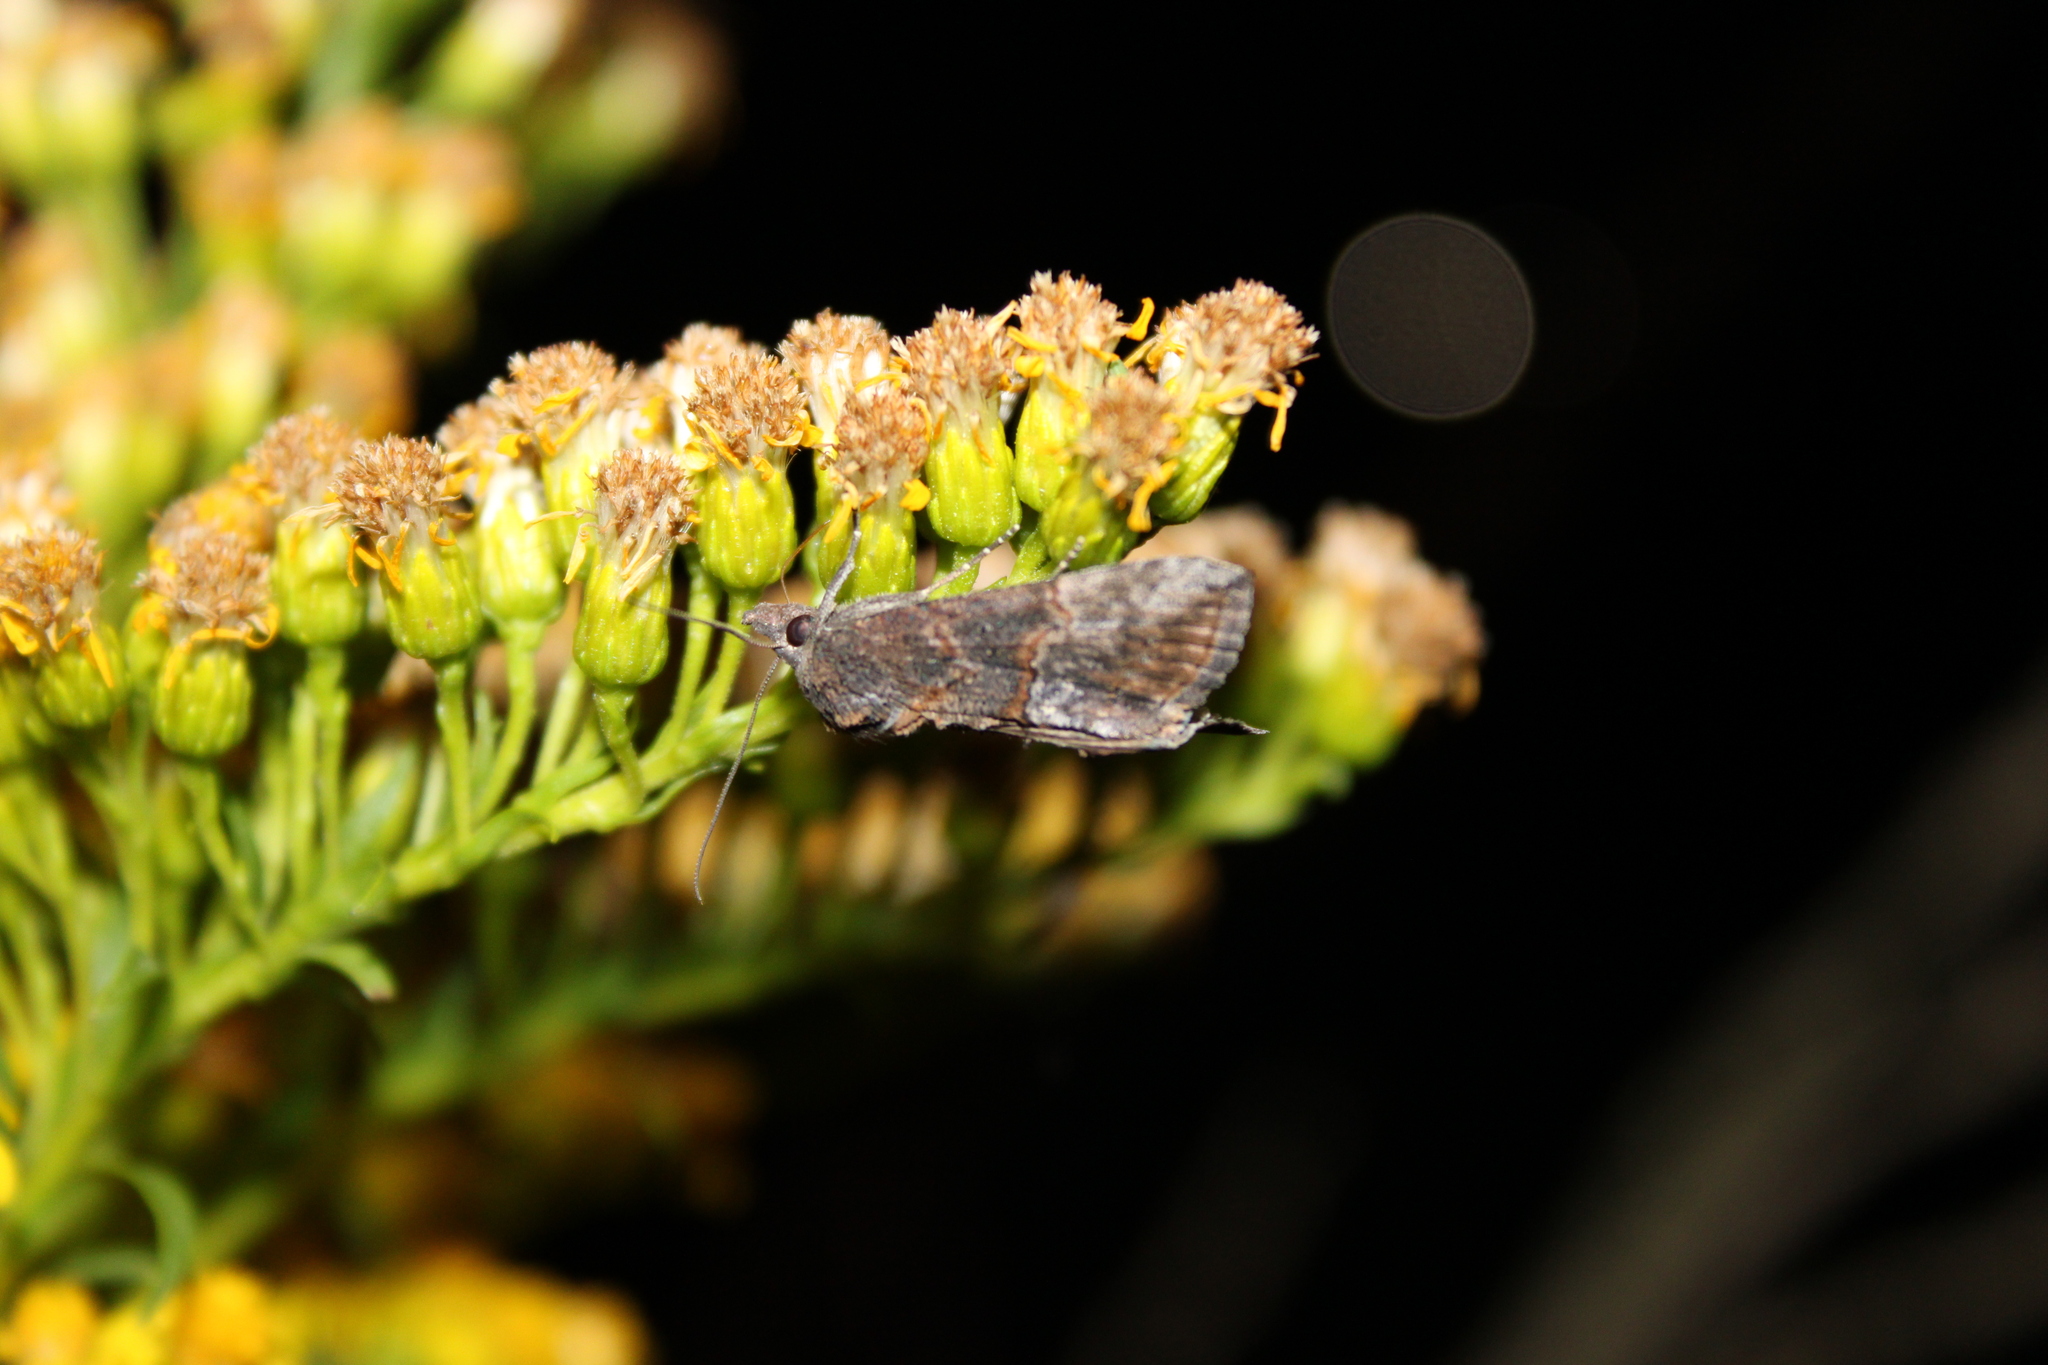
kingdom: Animalia
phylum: Arthropoda
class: Insecta
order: Lepidoptera
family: Erebidae
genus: Hypena
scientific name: Hypena scabra
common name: Green cloverworm
